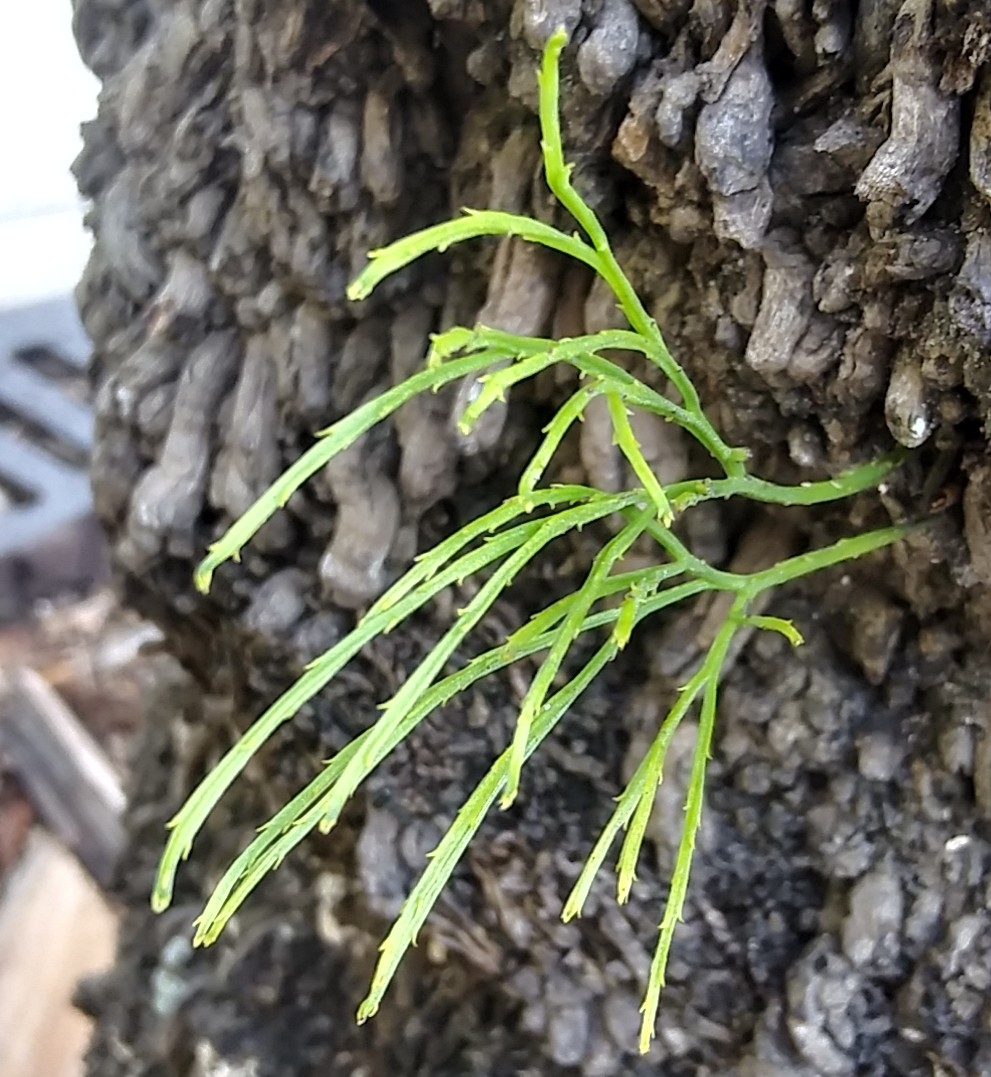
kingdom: Plantae
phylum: Tracheophyta
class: Polypodiopsida
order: Psilotales
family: Psilotaceae
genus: Psilotum
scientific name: Psilotum nudum
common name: Skeleton fork fern
